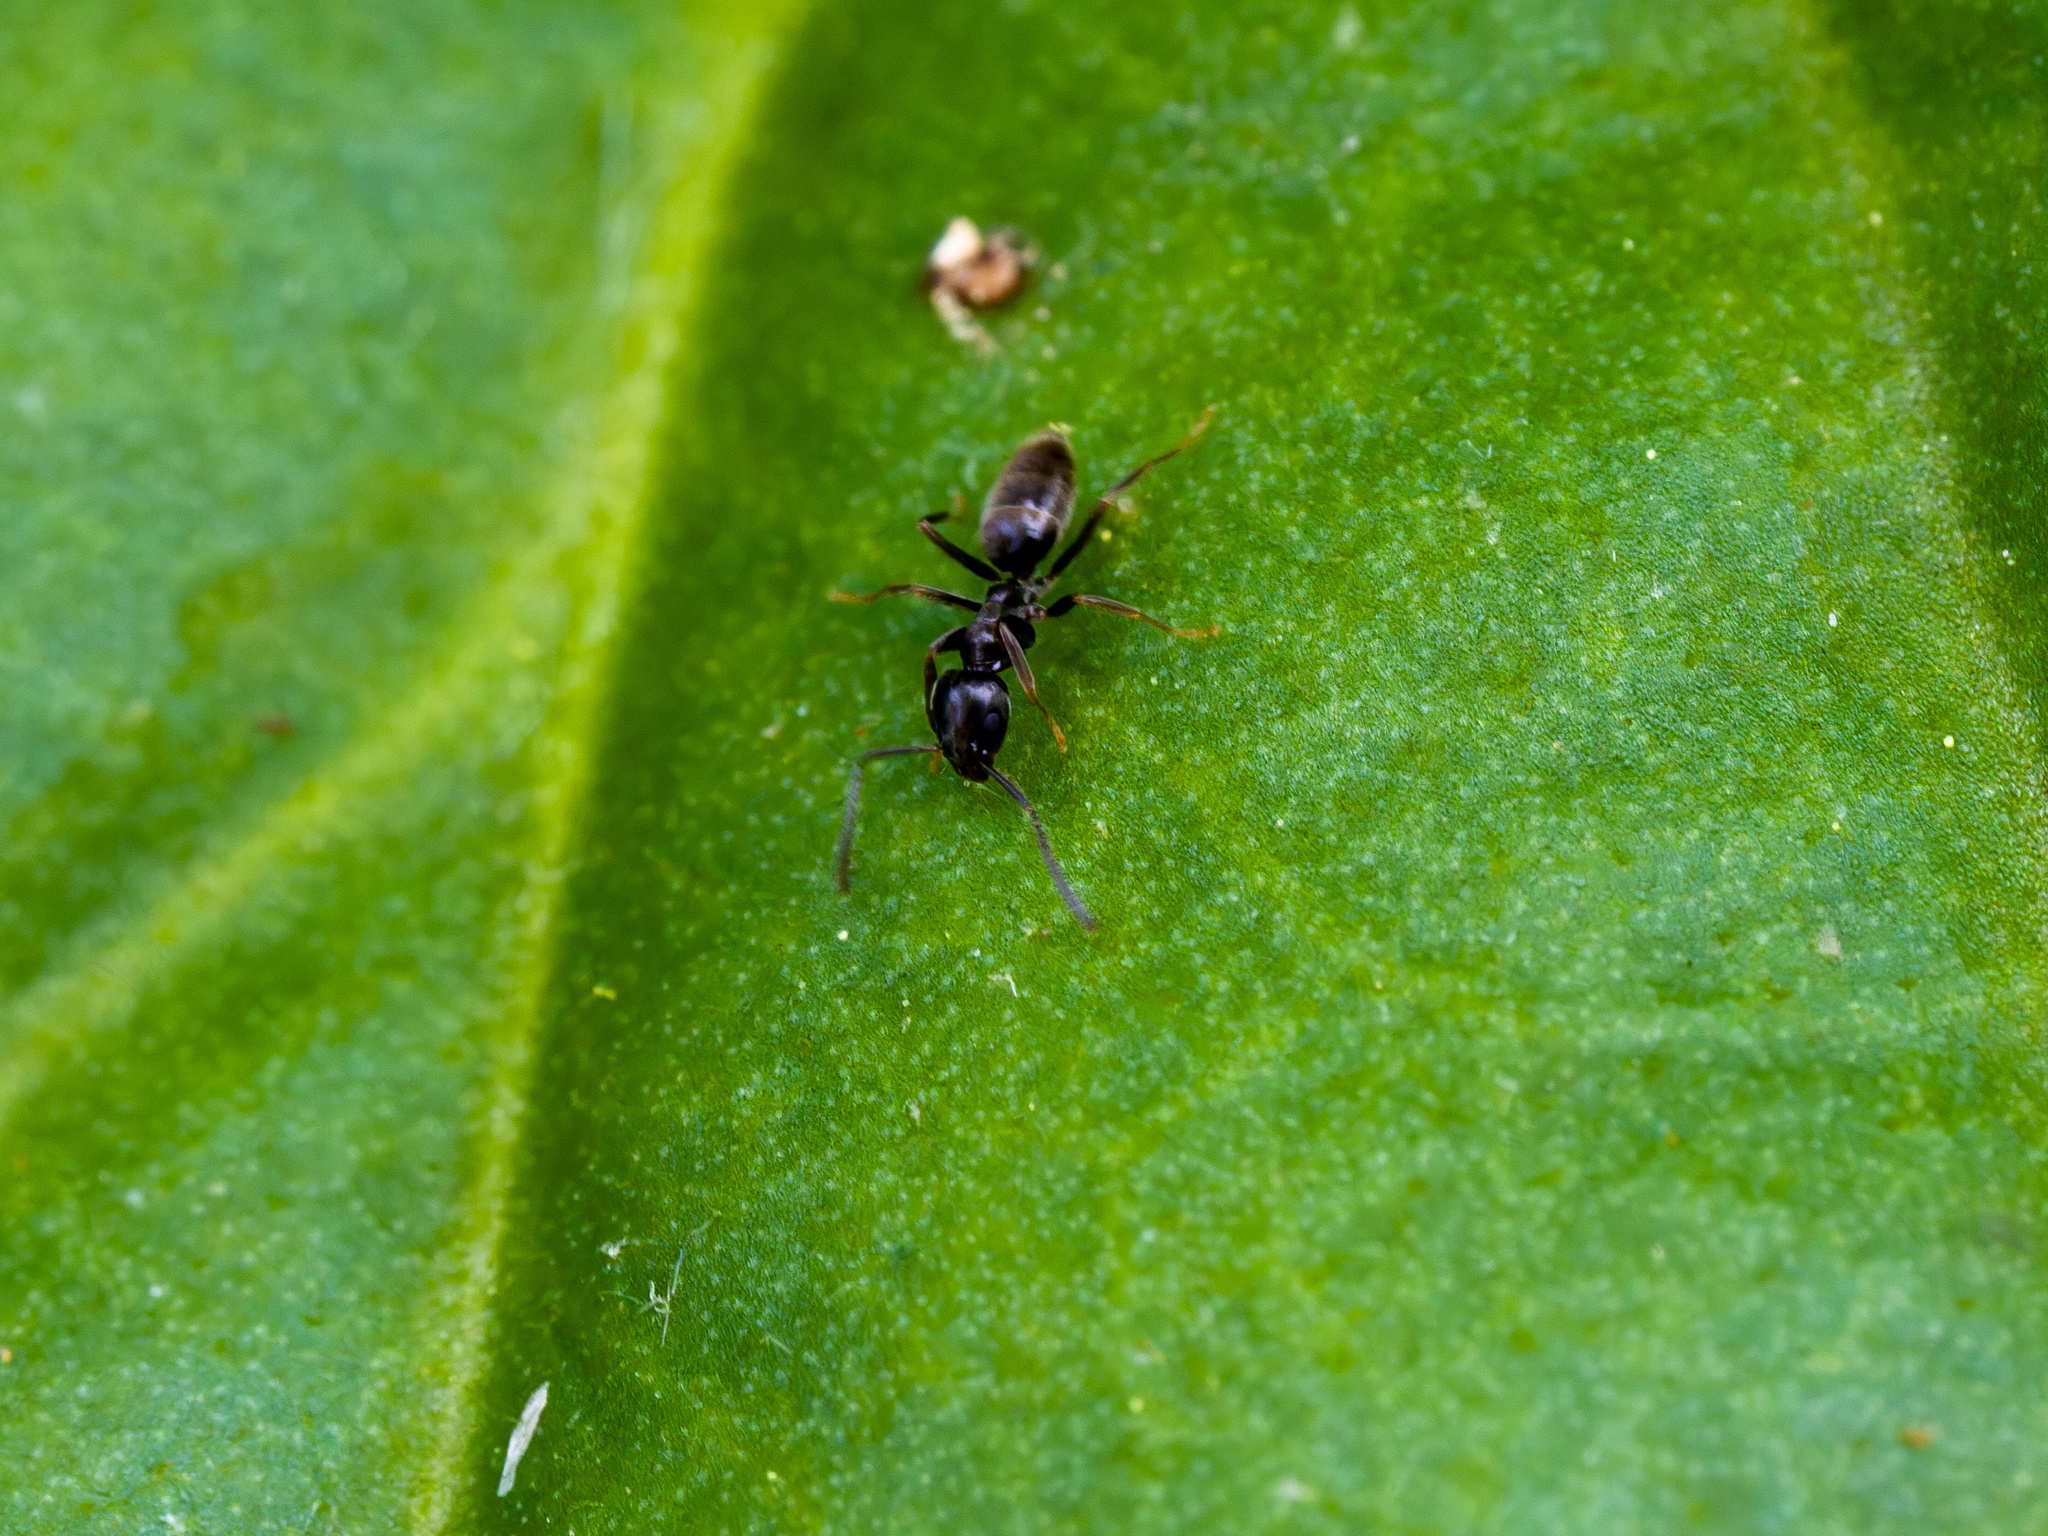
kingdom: Animalia
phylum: Arthropoda
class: Insecta
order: Hymenoptera
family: Formicidae
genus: Tapinoma
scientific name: Tapinoma sessile
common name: Odorous house ant
